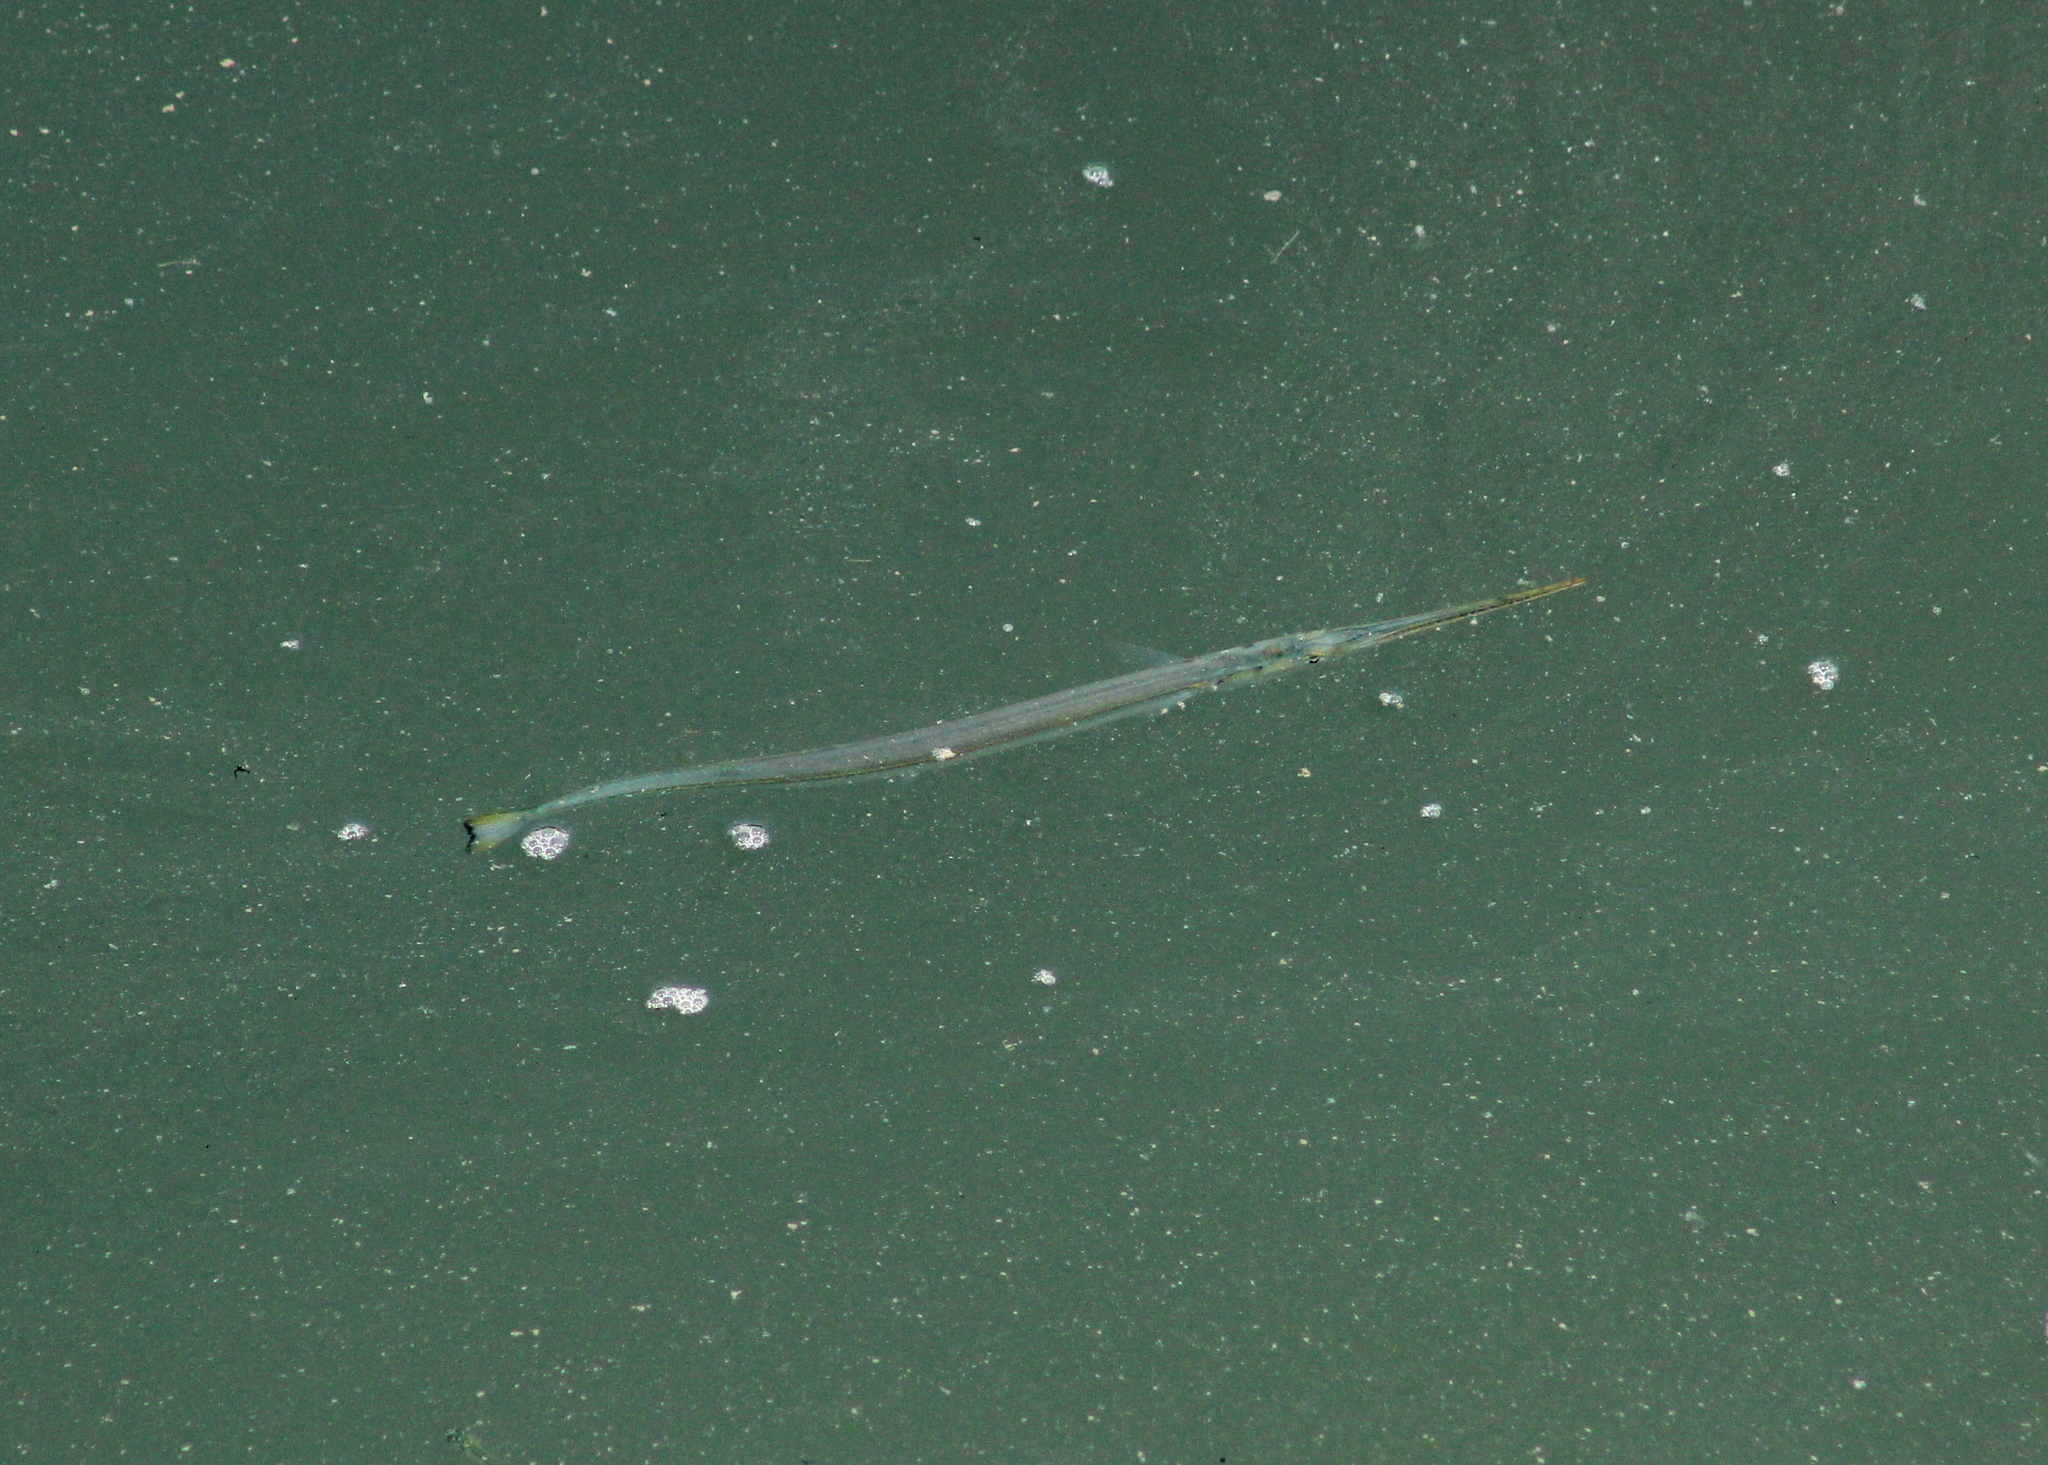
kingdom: Animalia
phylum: Chordata
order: Beloniformes
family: Belonidae
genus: Strongylura
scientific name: Strongylura marina
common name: Atlantic needlefish
